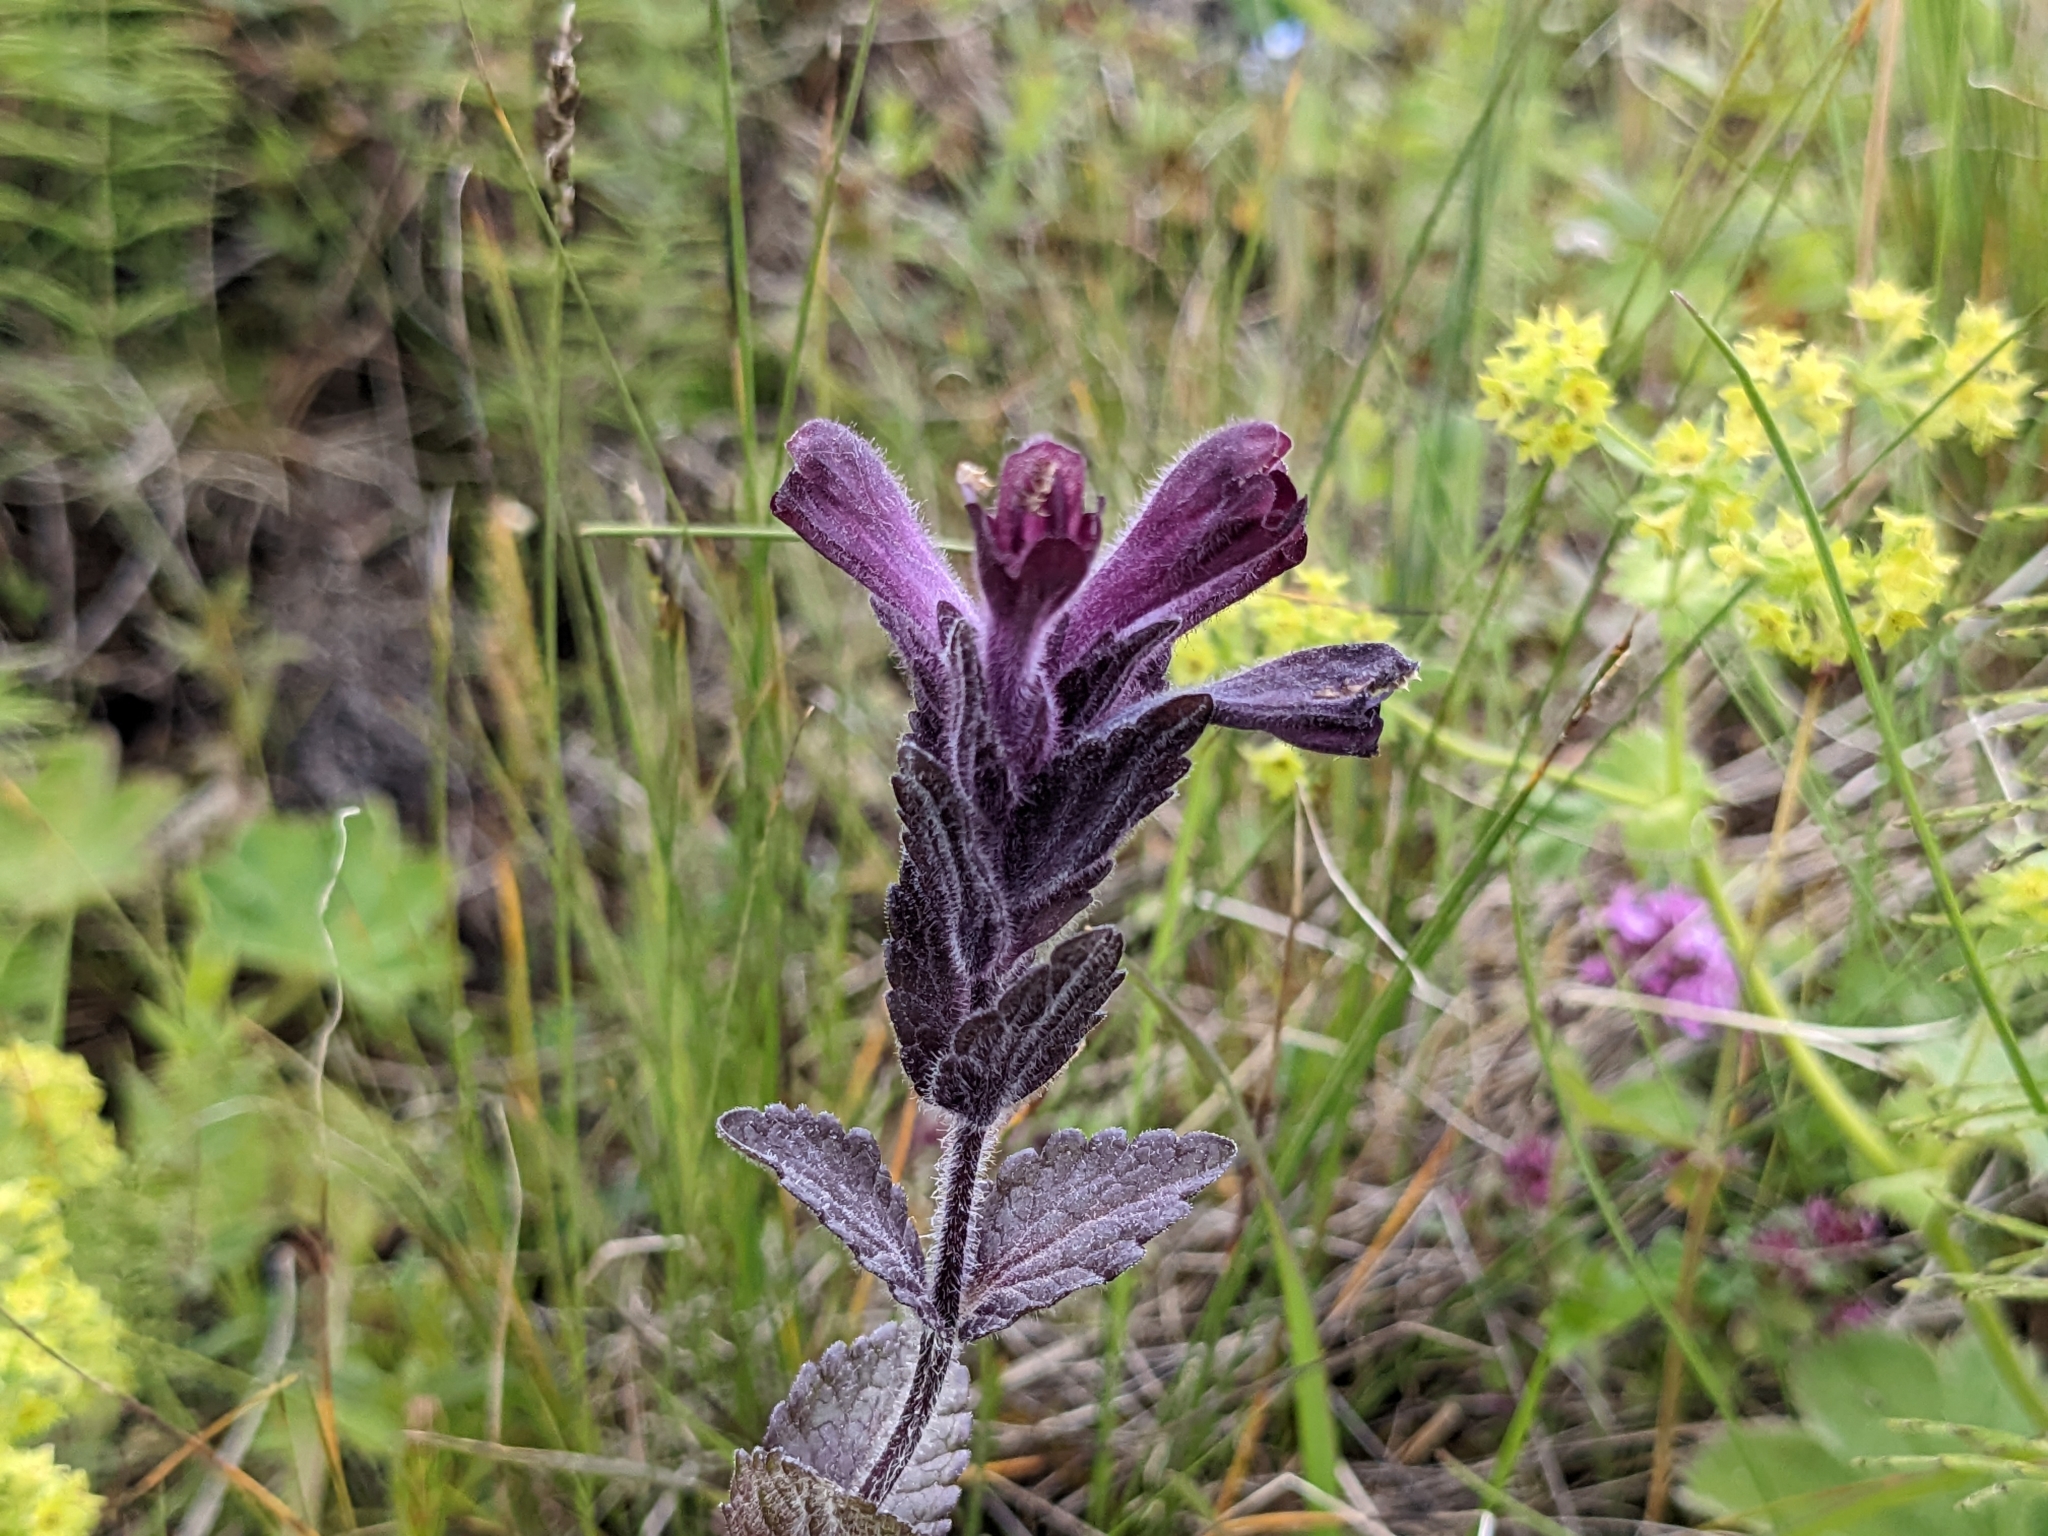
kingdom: Plantae
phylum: Tracheophyta
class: Magnoliopsida
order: Lamiales
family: Orobanchaceae
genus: Bartsia
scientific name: Bartsia alpina
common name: Alpine bartsia
